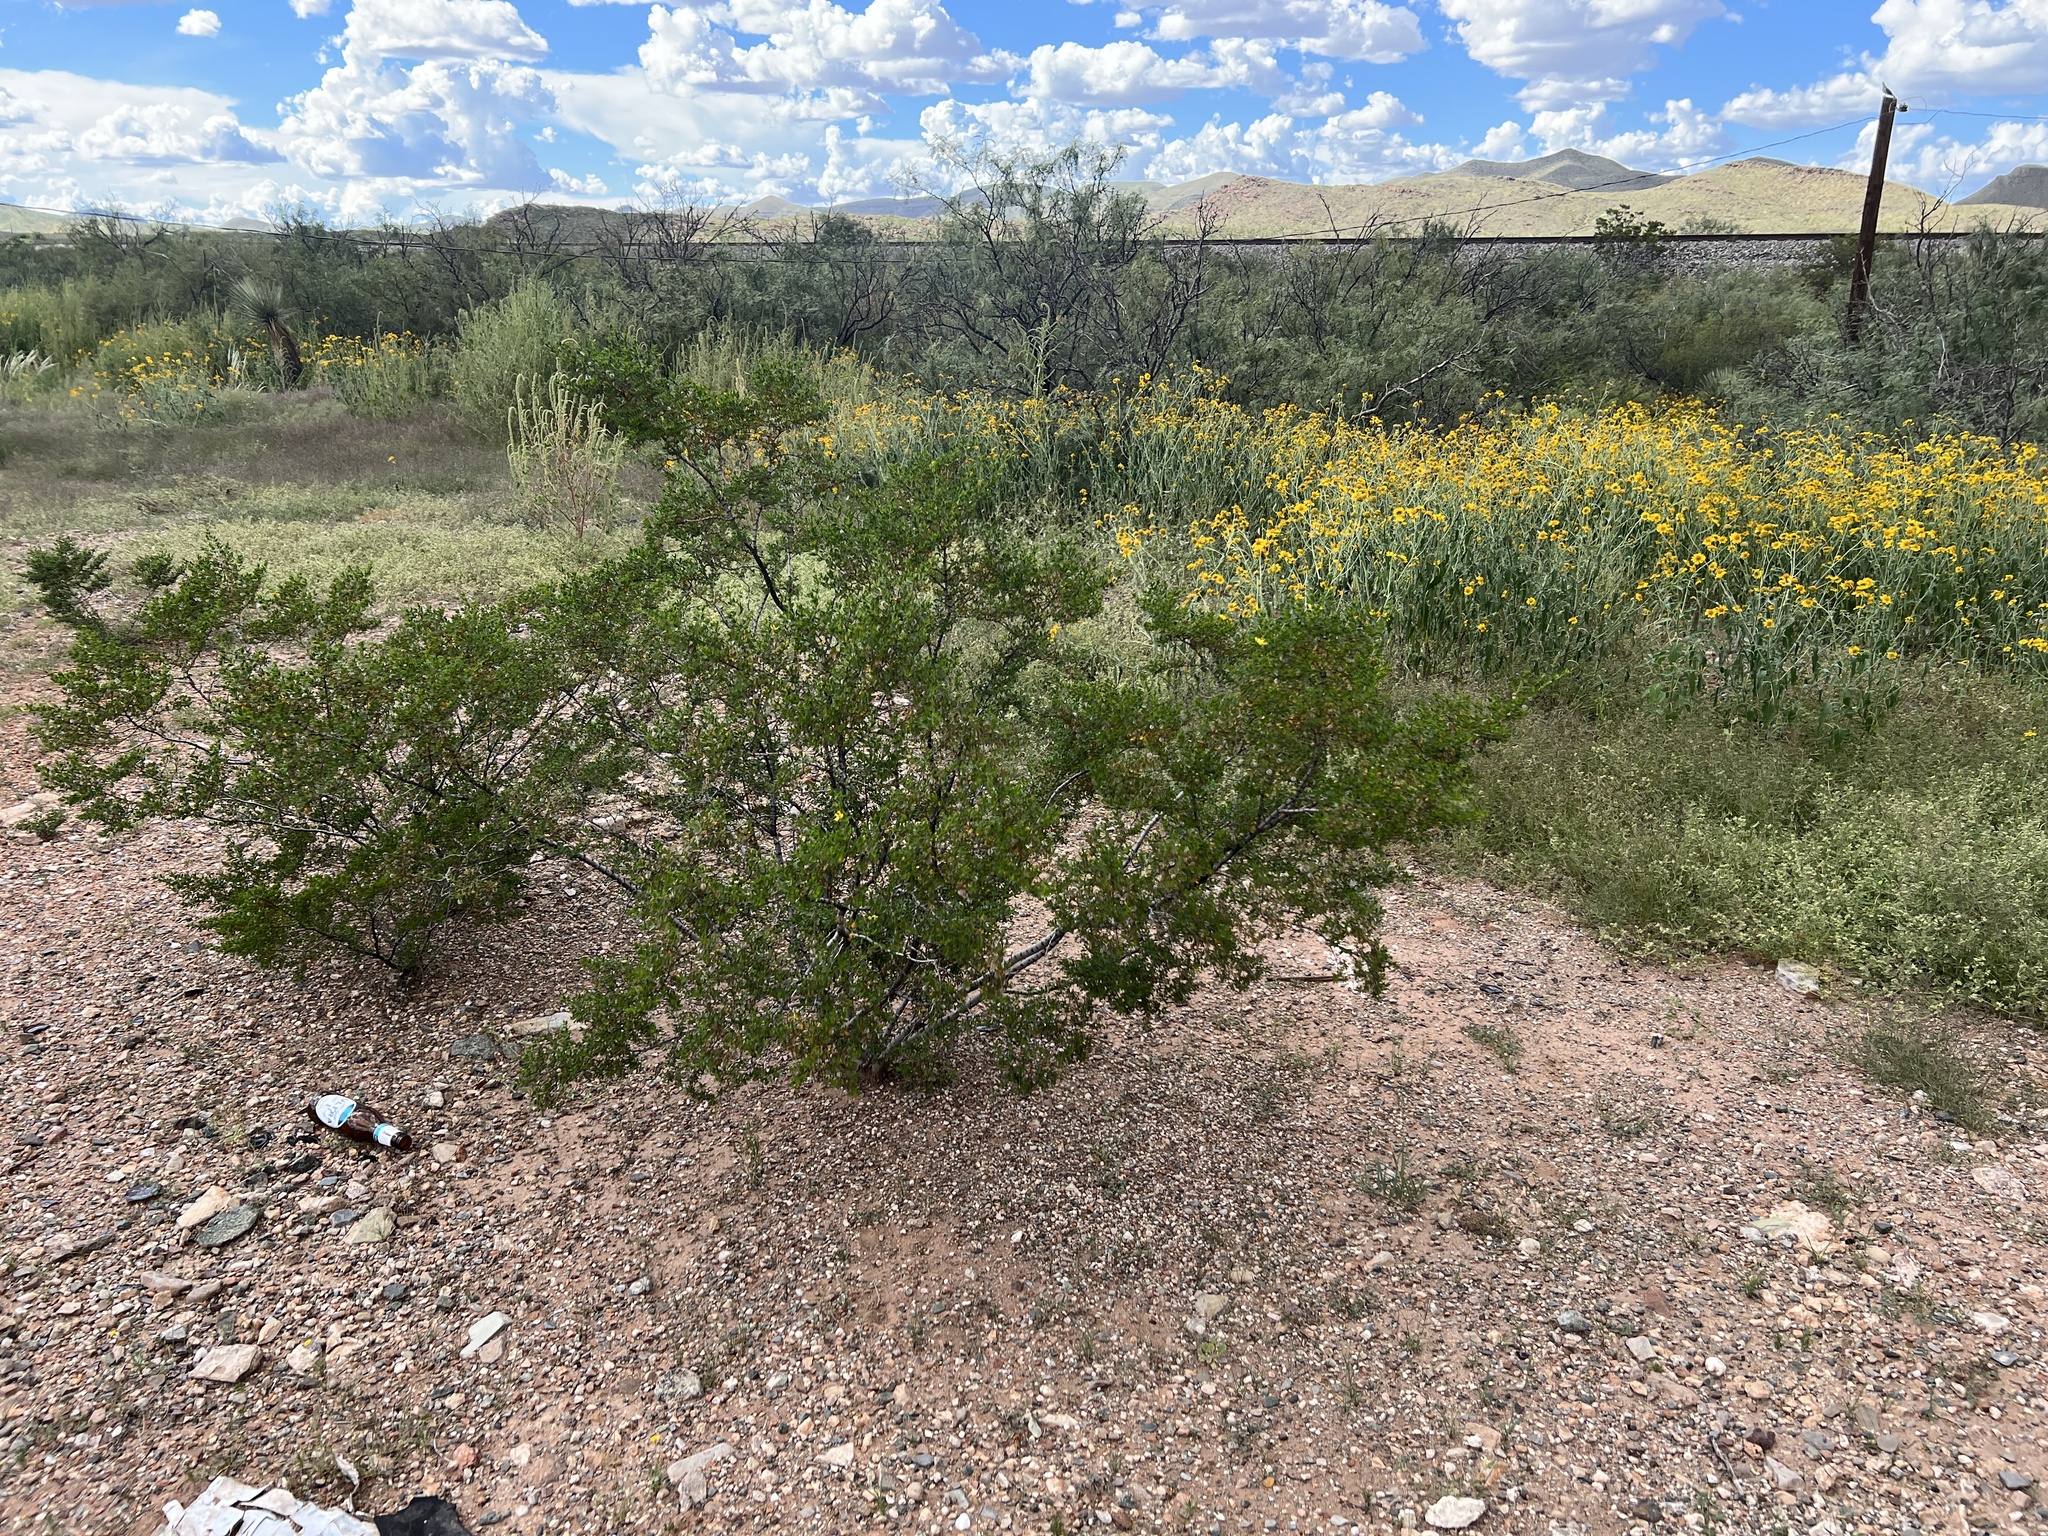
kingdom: Plantae
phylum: Tracheophyta
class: Magnoliopsida
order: Zygophyllales
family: Zygophyllaceae
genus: Larrea
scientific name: Larrea tridentata
